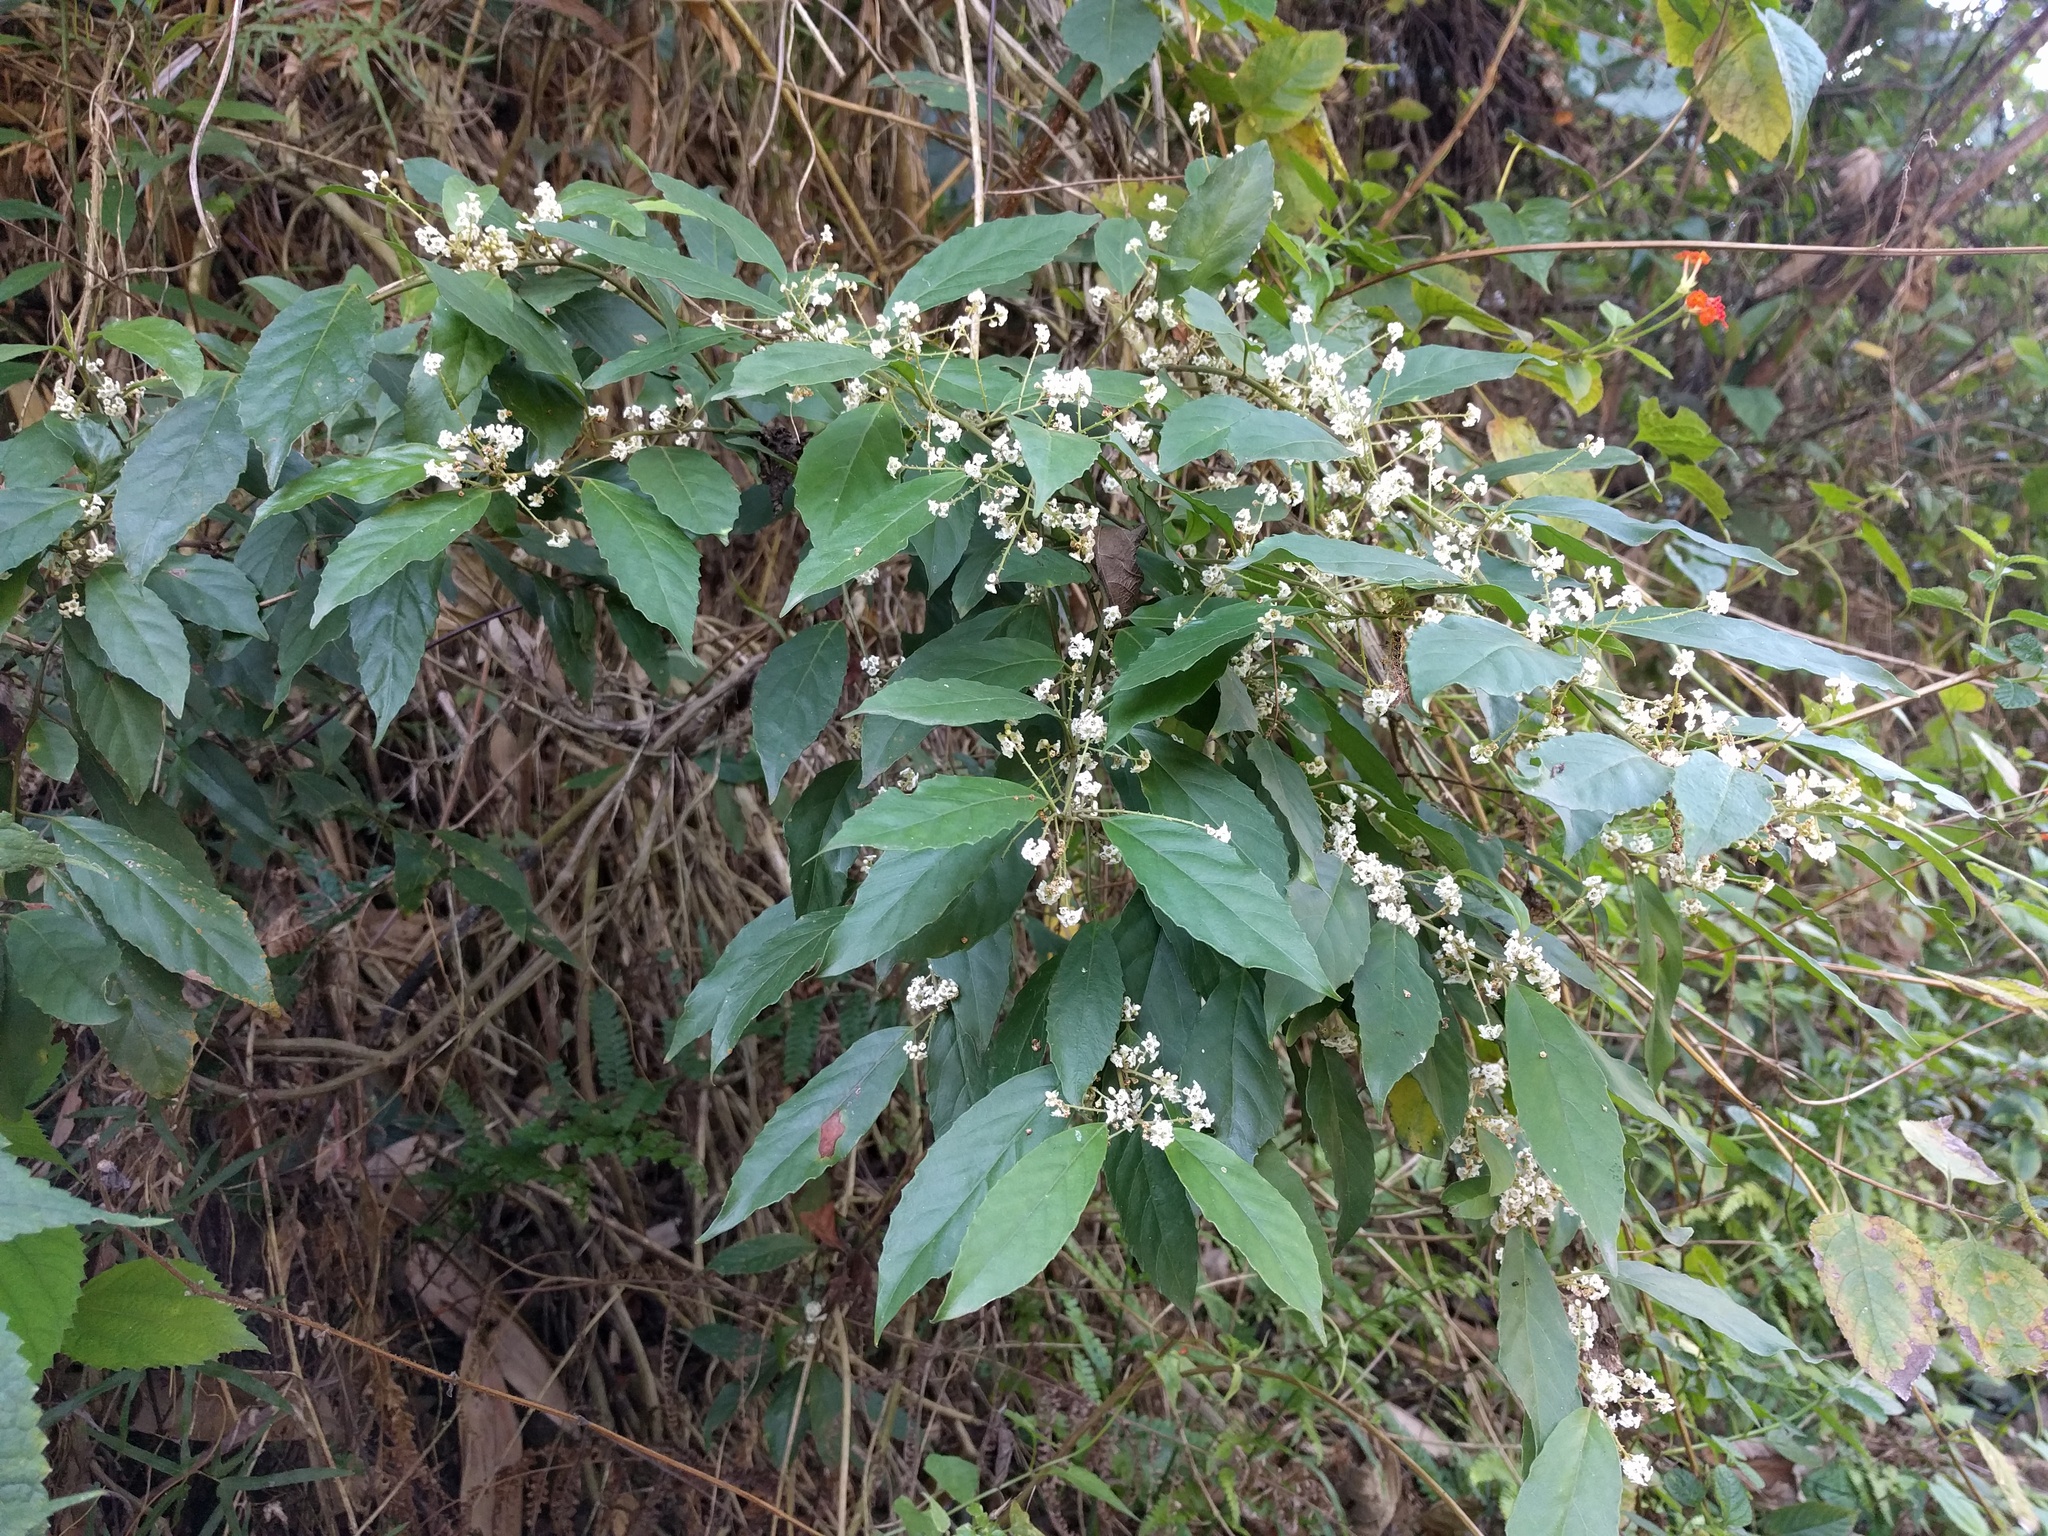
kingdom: Plantae
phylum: Tracheophyta
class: Magnoliopsida
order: Ericales
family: Primulaceae
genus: Maesa
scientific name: Maesa perlaria
